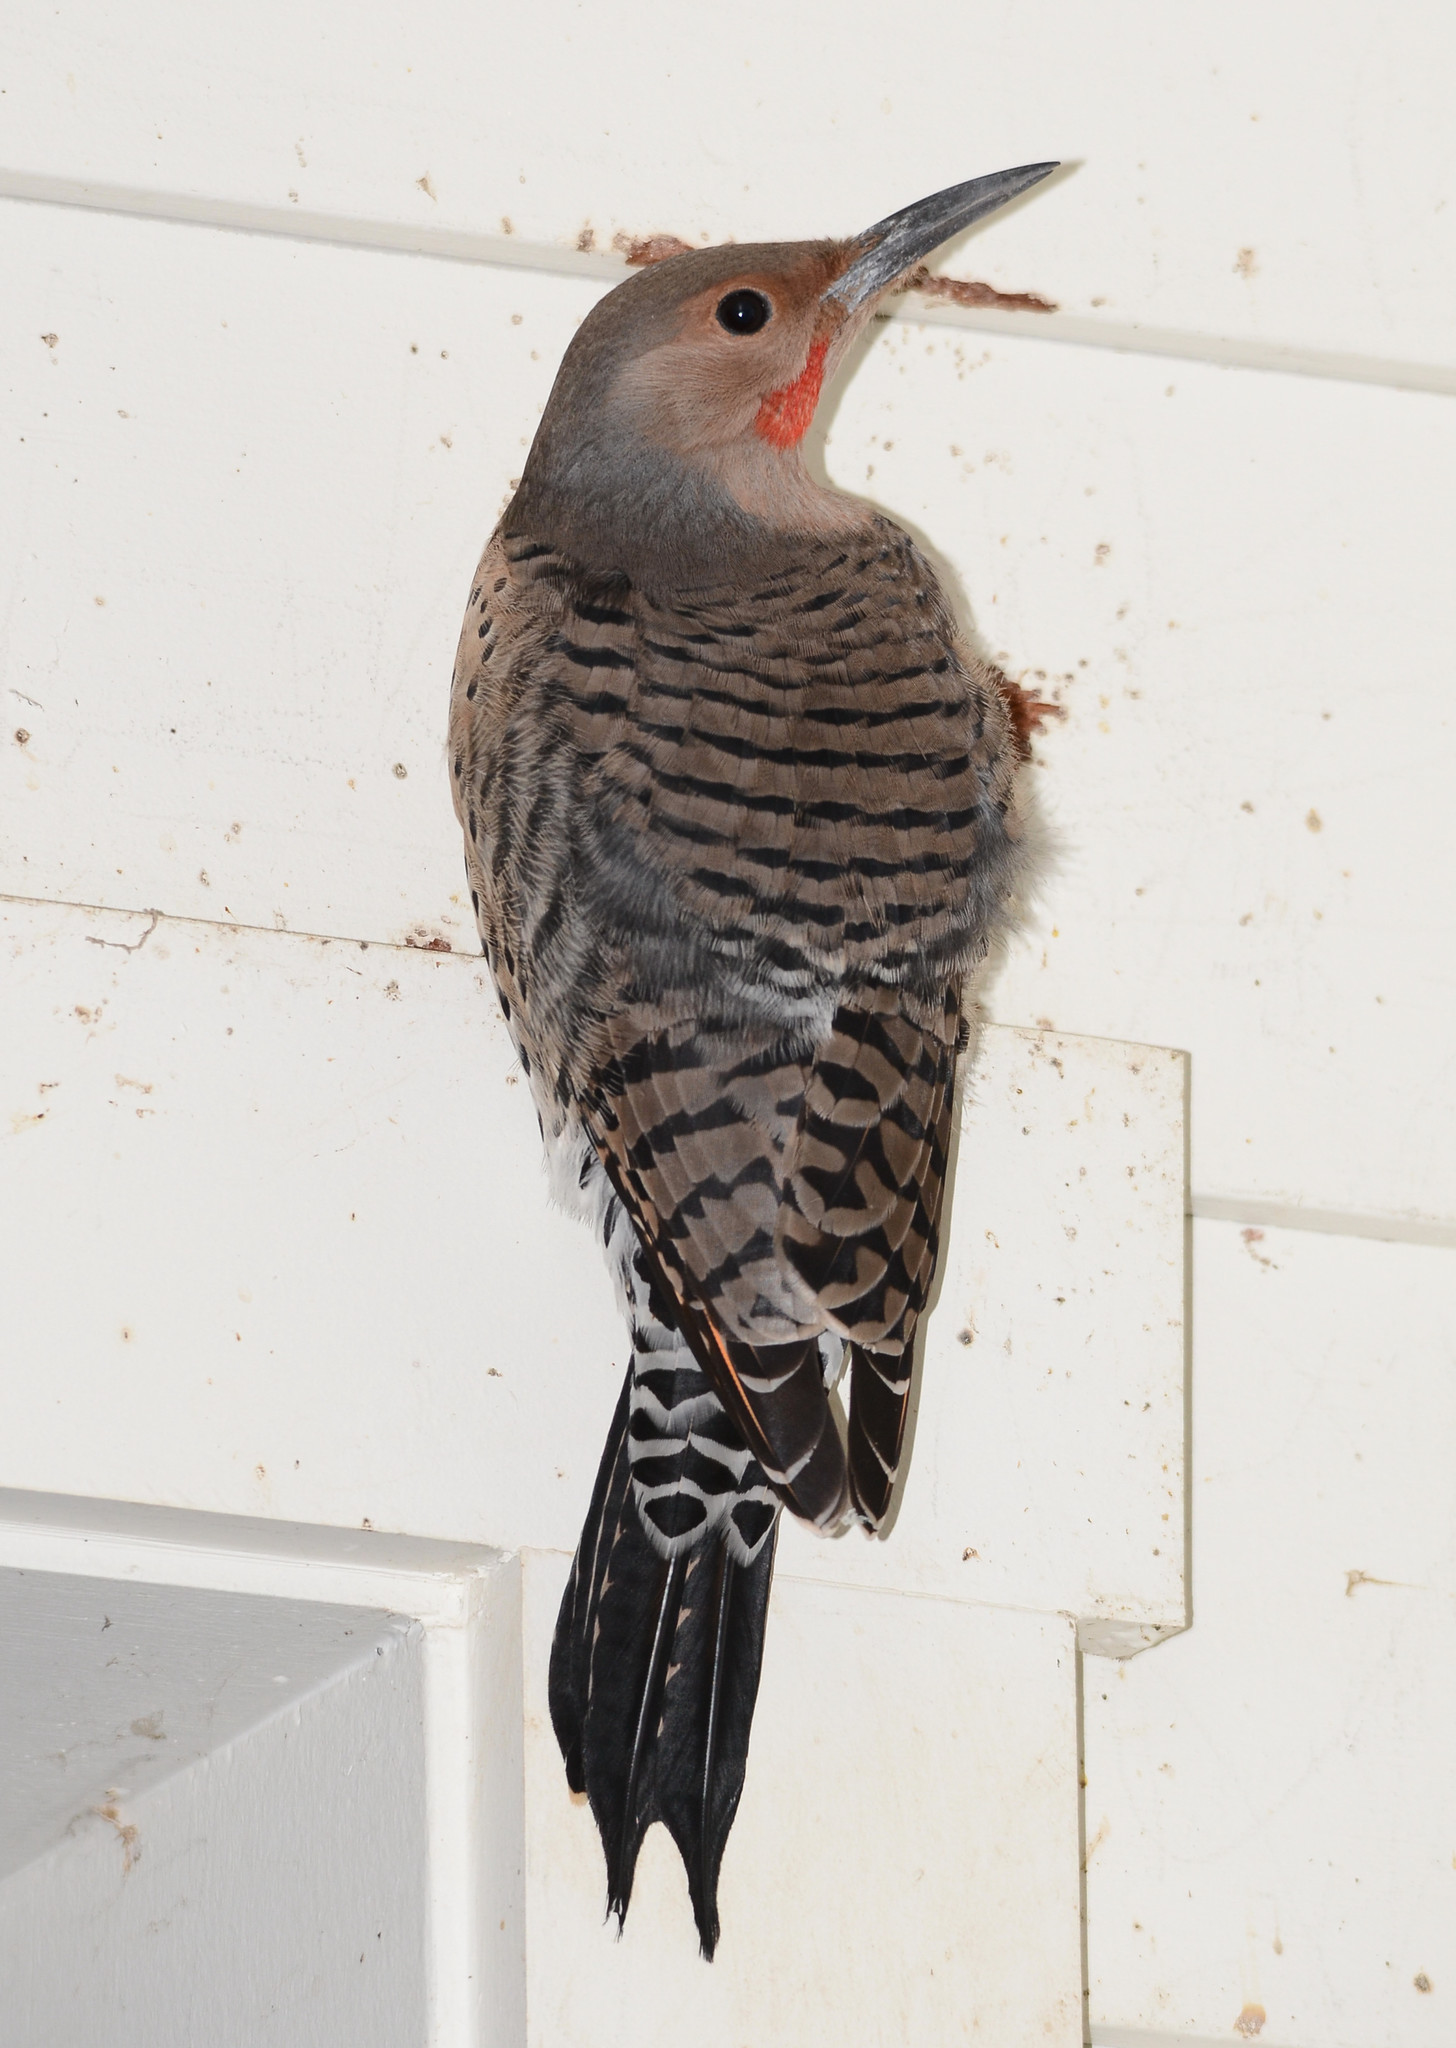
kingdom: Animalia
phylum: Chordata
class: Aves
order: Piciformes
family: Picidae
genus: Colaptes
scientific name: Colaptes auratus
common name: Northern flicker
